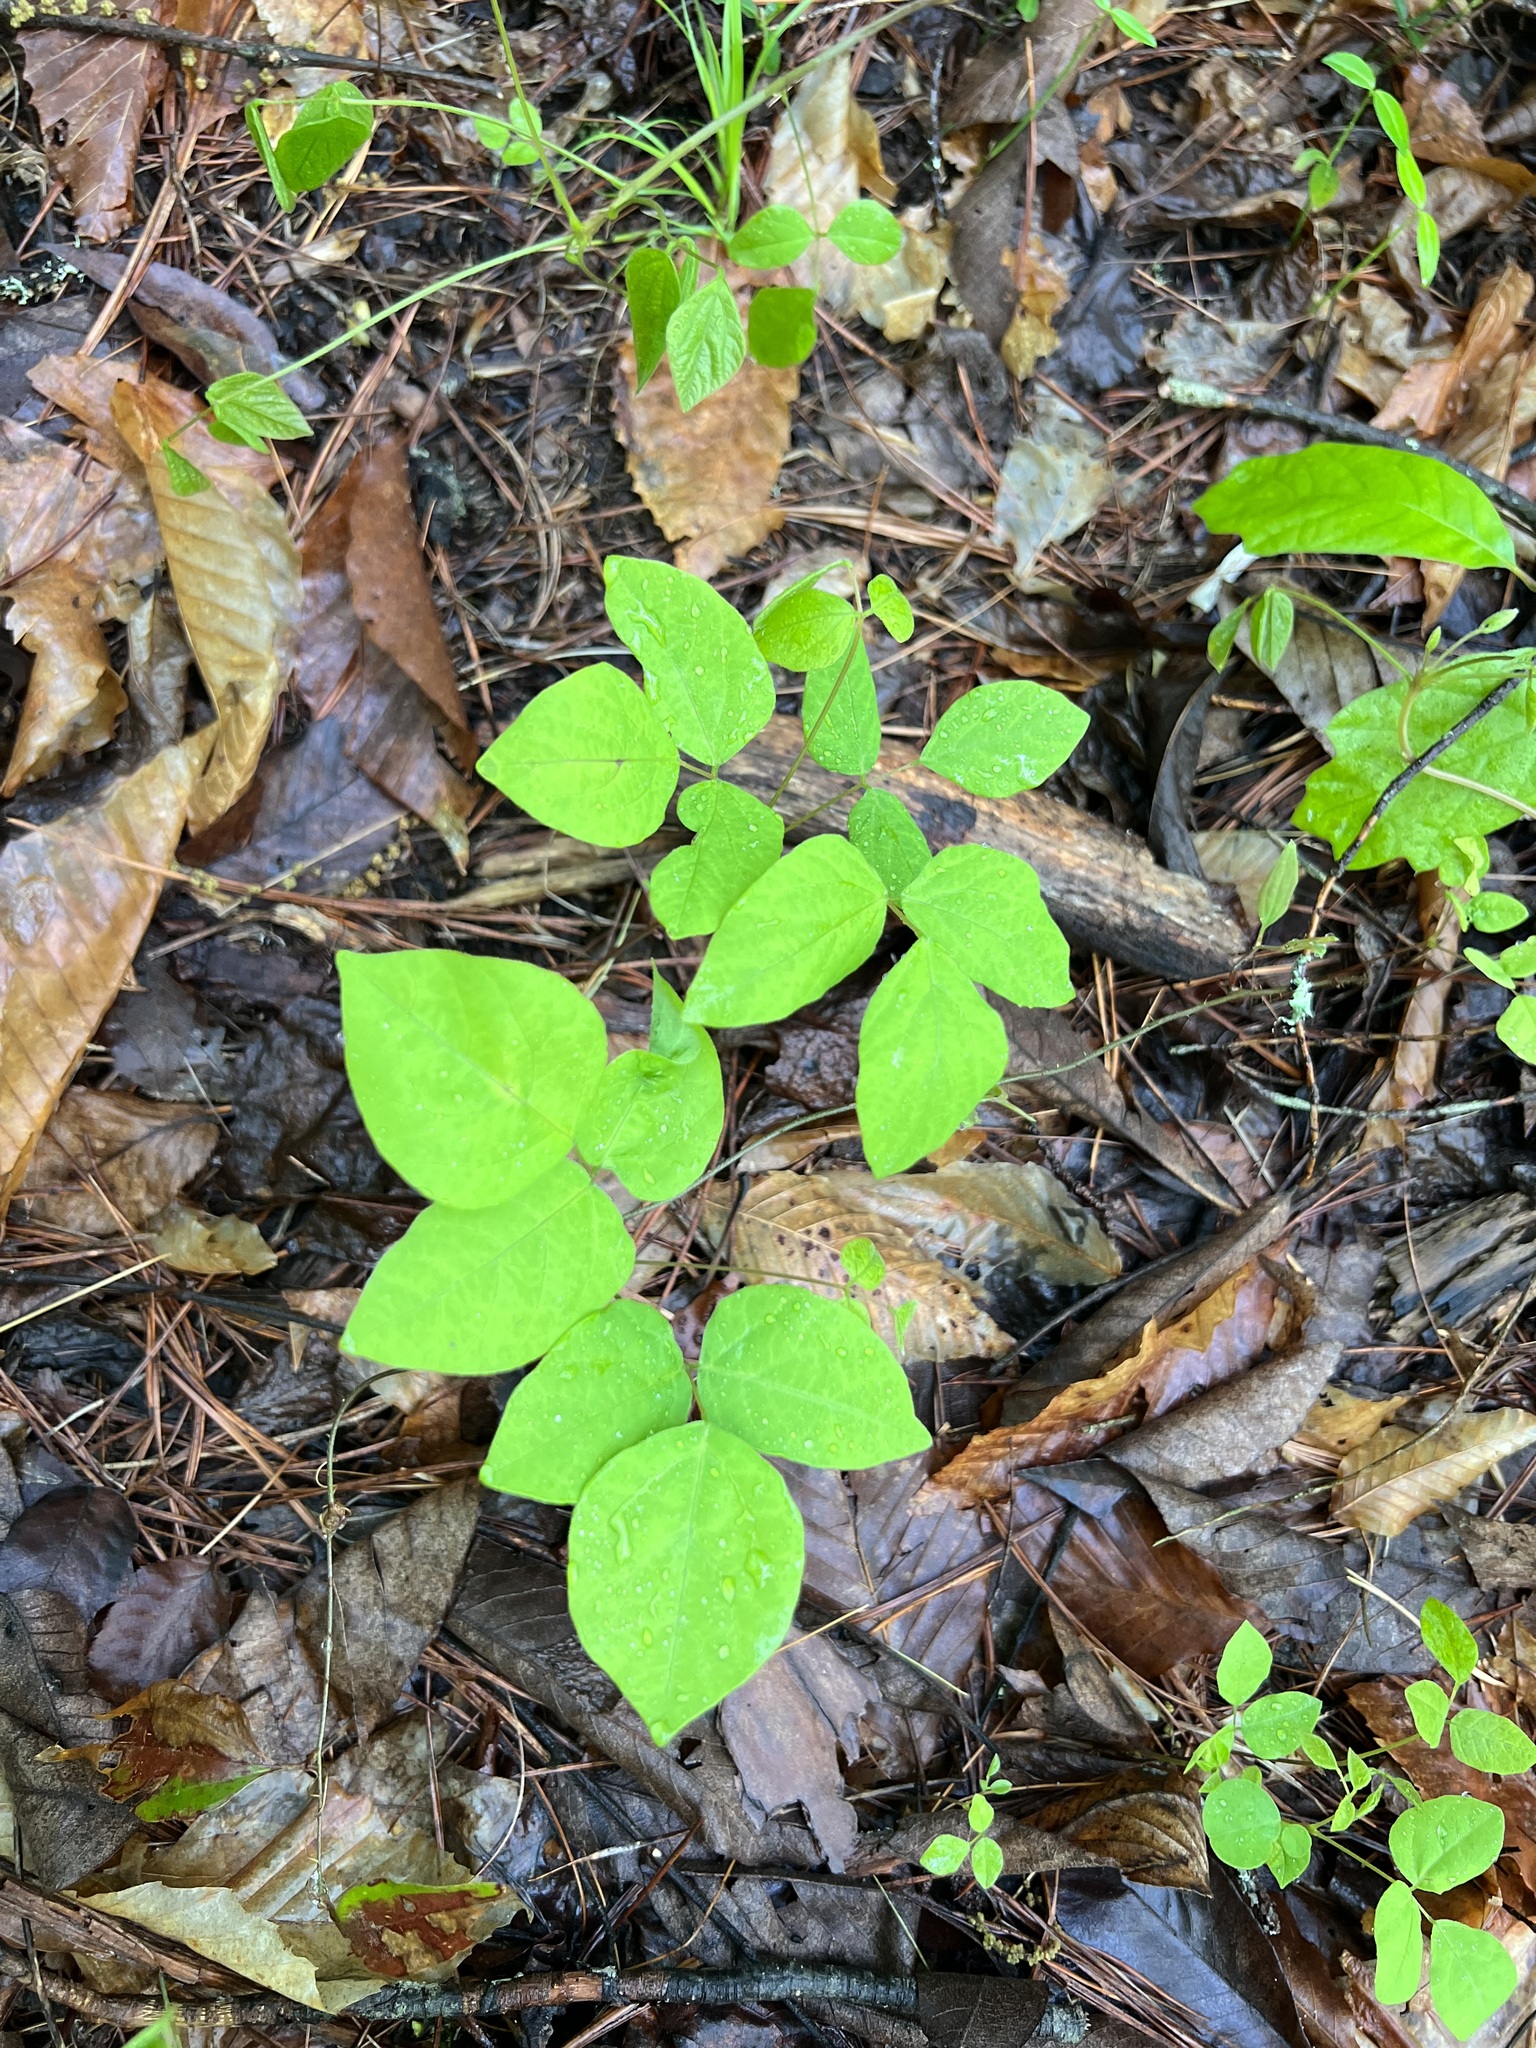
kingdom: Plantae
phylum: Tracheophyta
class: Magnoliopsida
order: Fabales
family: Fabaceae
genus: Hylodesmum
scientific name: Hylodesmum nudiflorum
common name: Bare-stemmed tick-trefoil
